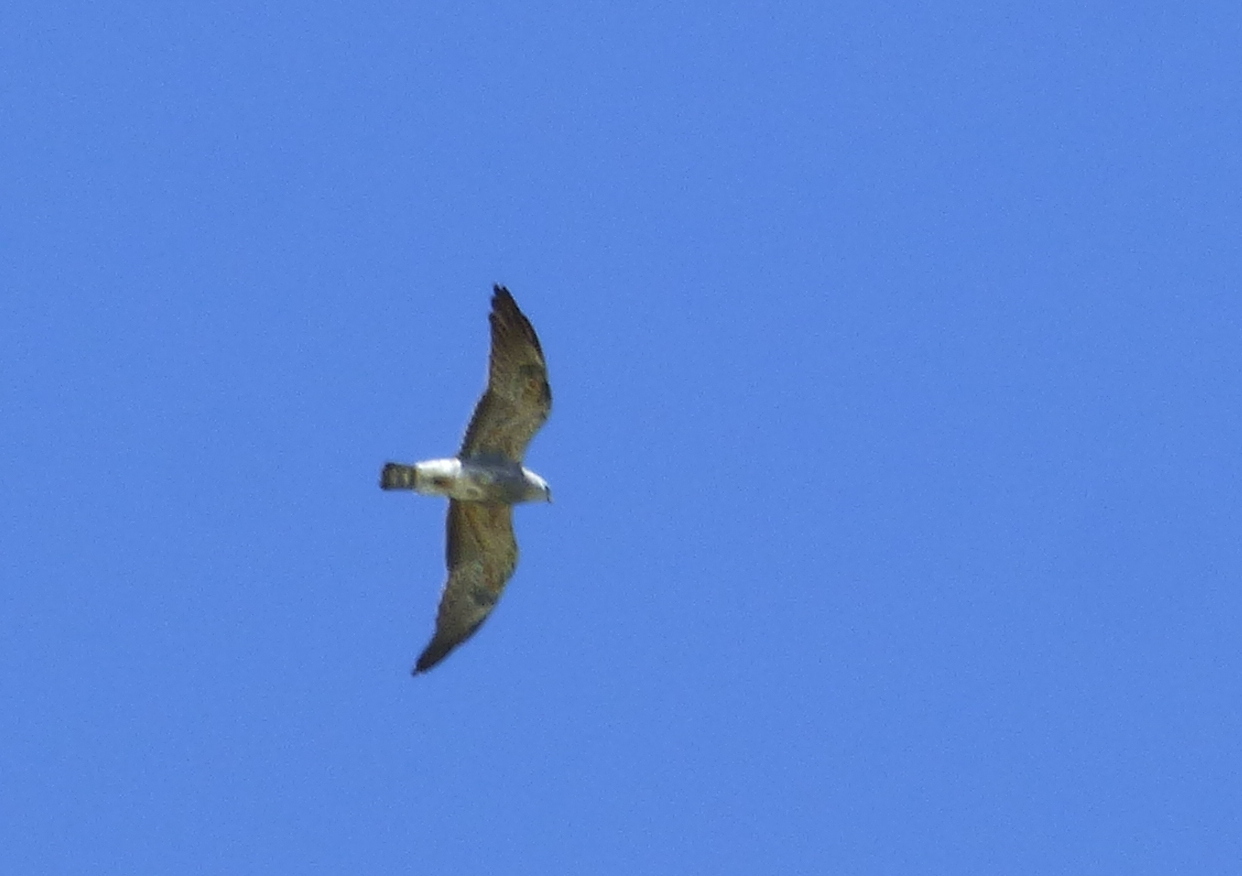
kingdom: Animalia
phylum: Chordata
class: Aves
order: Accipitriformes
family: Accipitridae
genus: Ictinia
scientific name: Ictinia mississippiensis
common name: Mississippi kite
